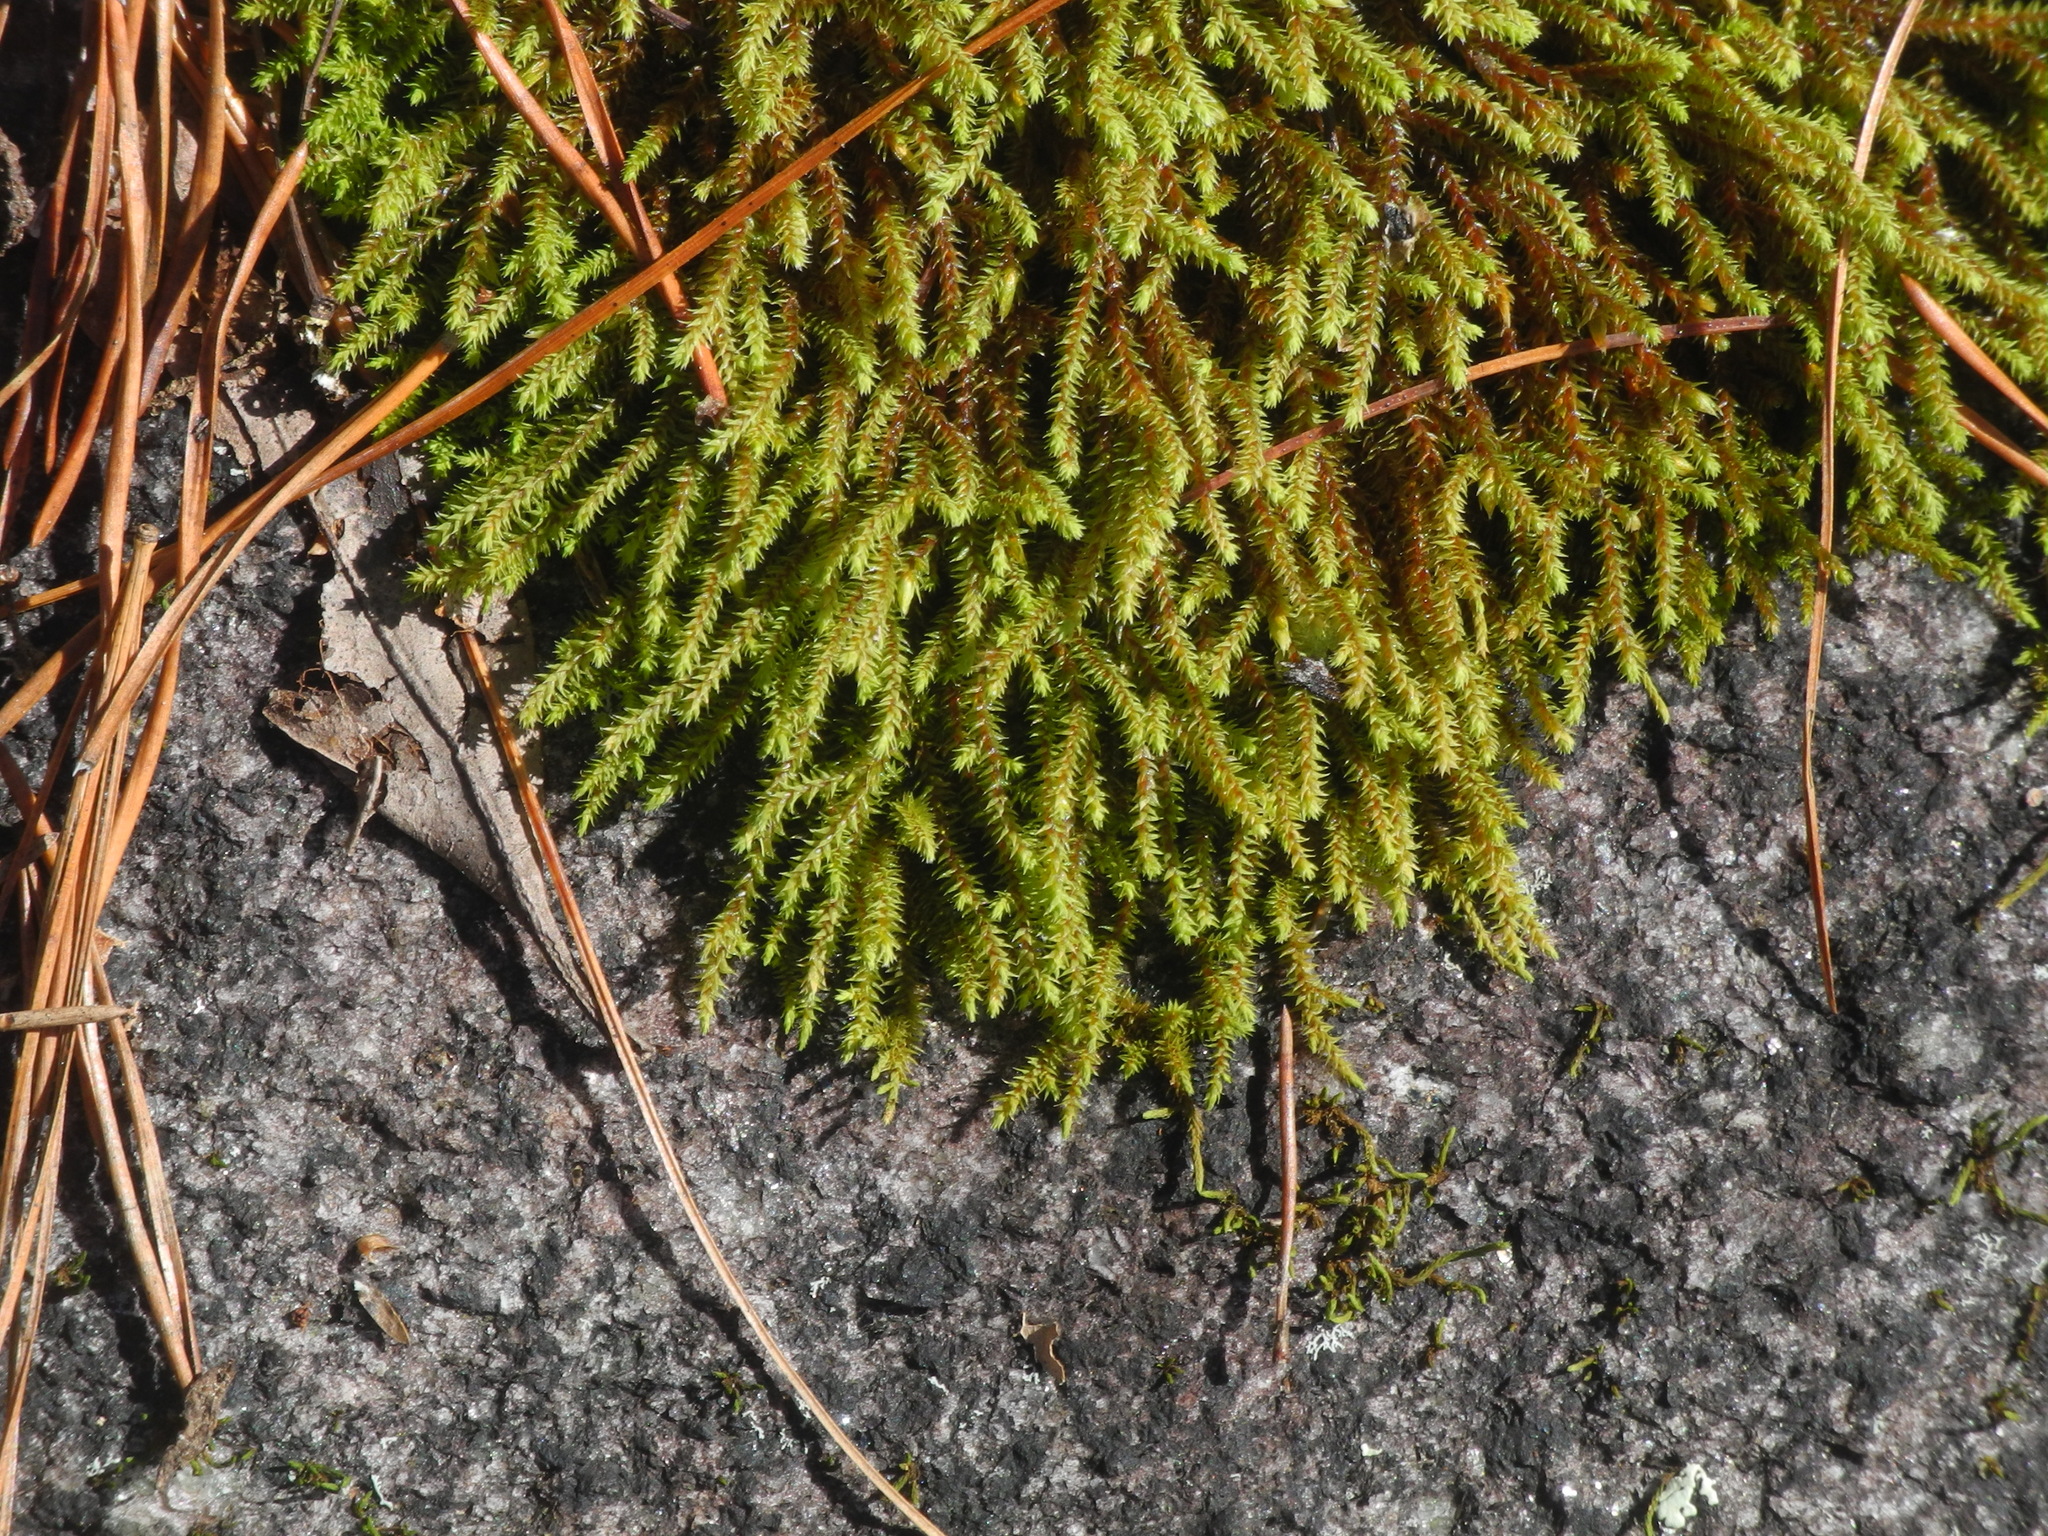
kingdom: Plantae
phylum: Bryophyta
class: Bryopsida
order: Hedwigiales
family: Hedwigiaceae
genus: Hedwigia
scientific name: Hedwigia ciliata
